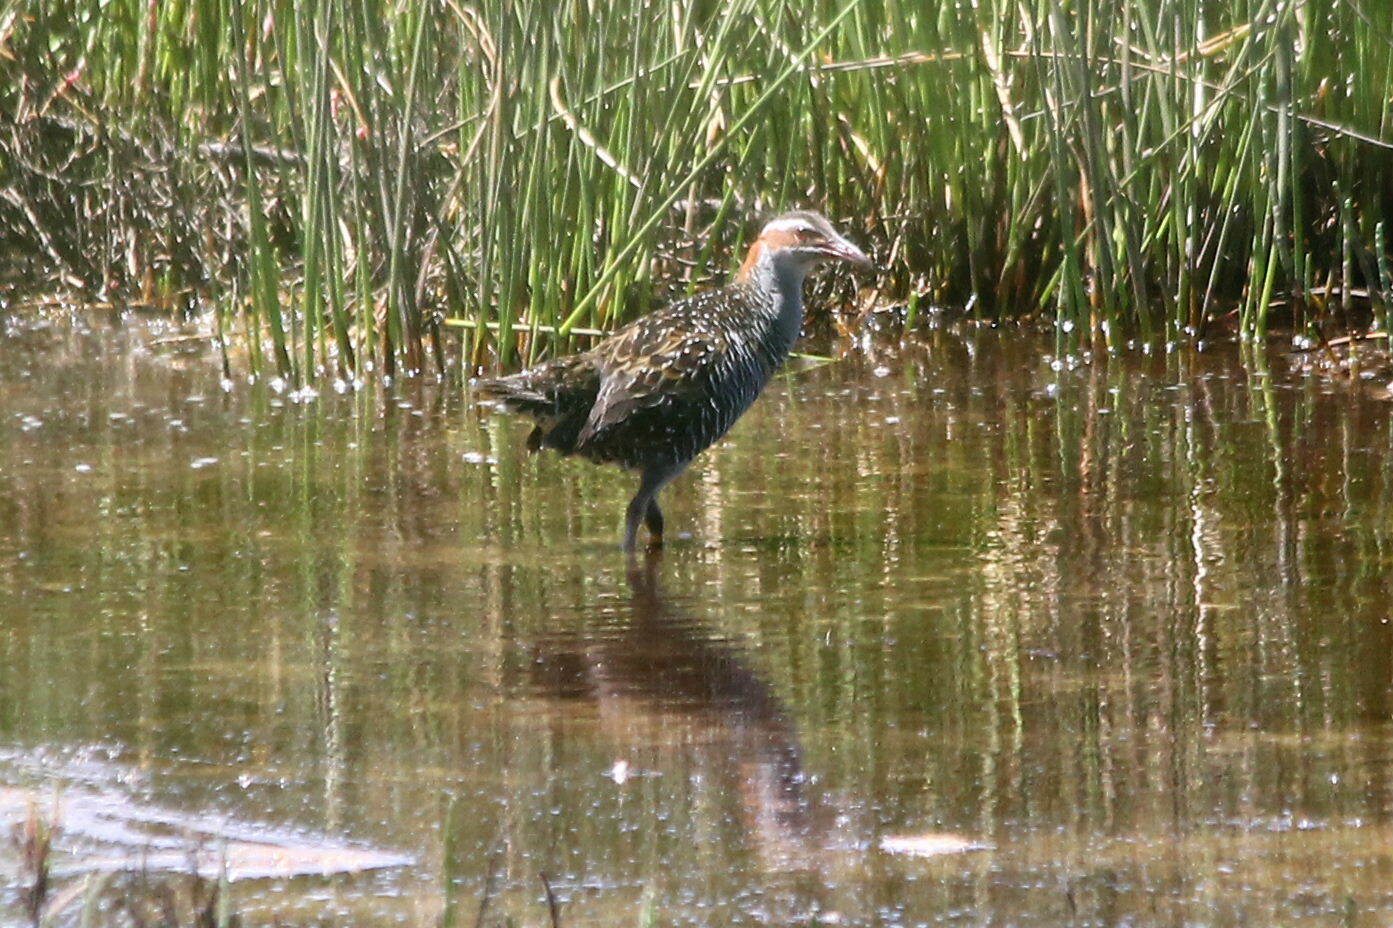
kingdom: Animalia
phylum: Chordata
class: Aves
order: Gruiformes
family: Rallidae
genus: Gallirallus
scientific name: Gallirallus philippensis
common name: Buff-banded rail
